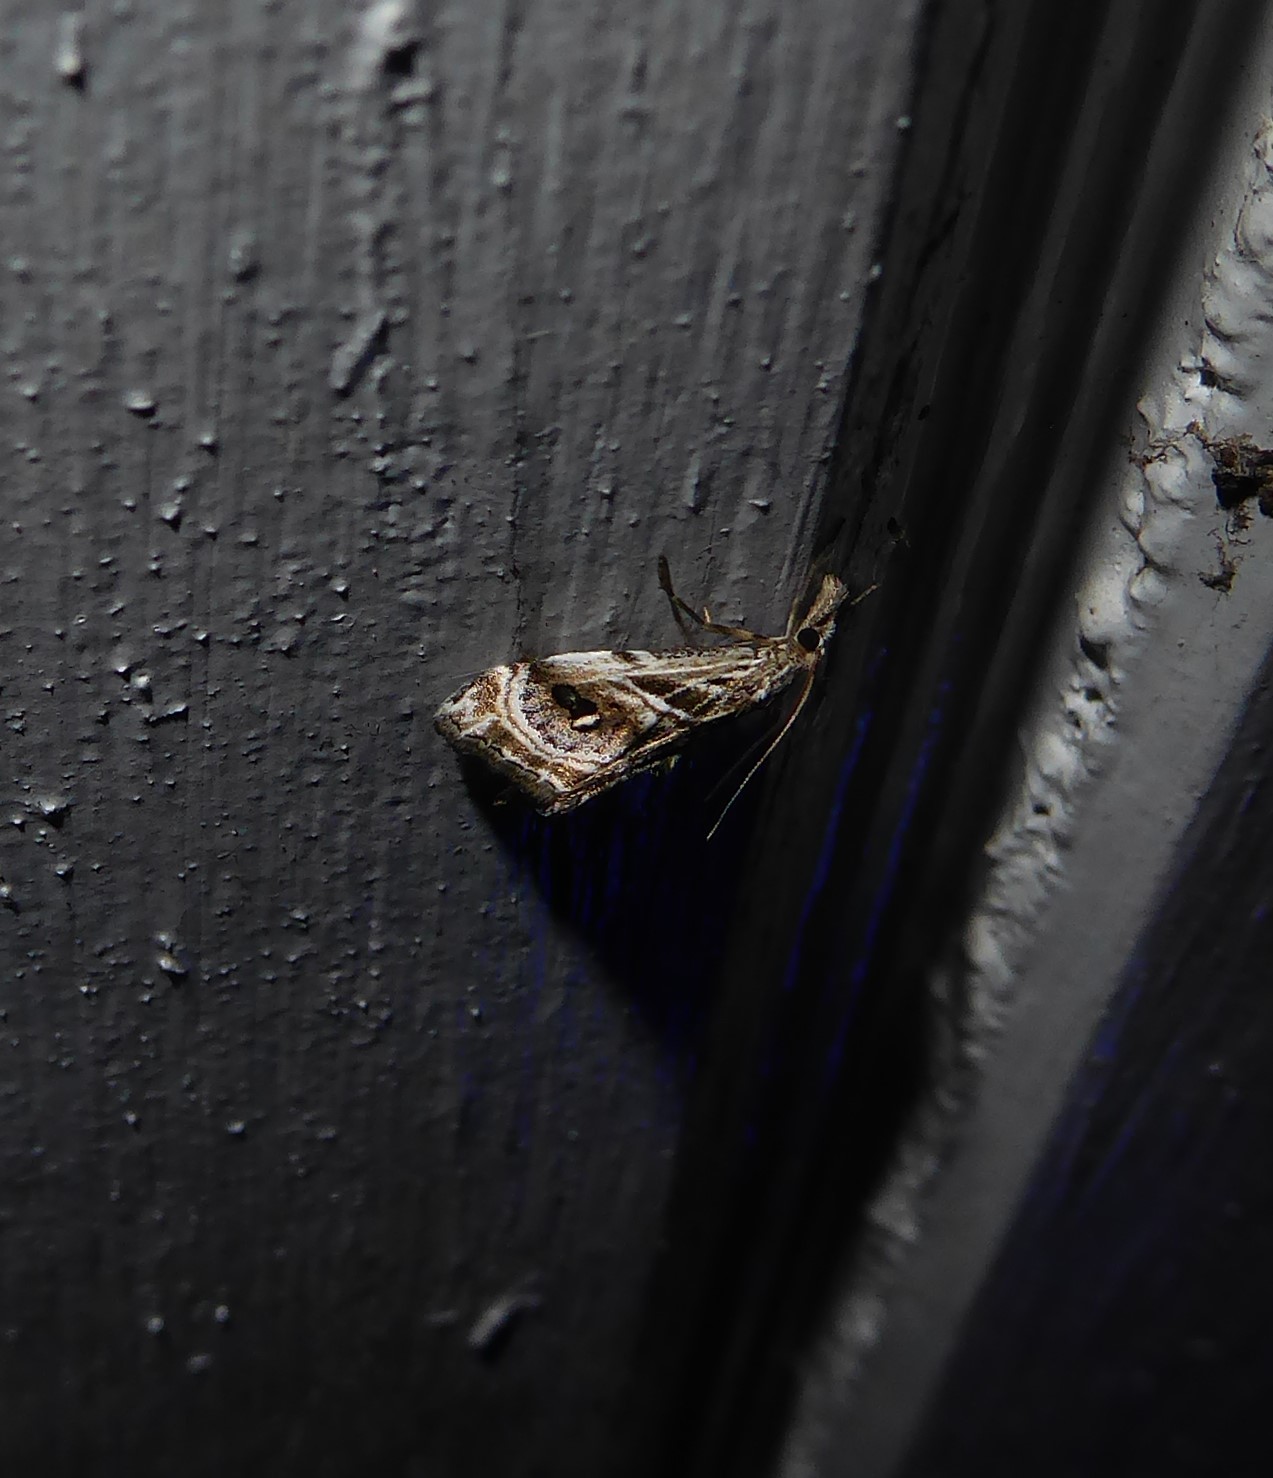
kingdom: Animalia
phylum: Arthropoda
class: Insecta
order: Lepidoptera
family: Crambidae
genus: Gadira
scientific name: Gadira acerella
